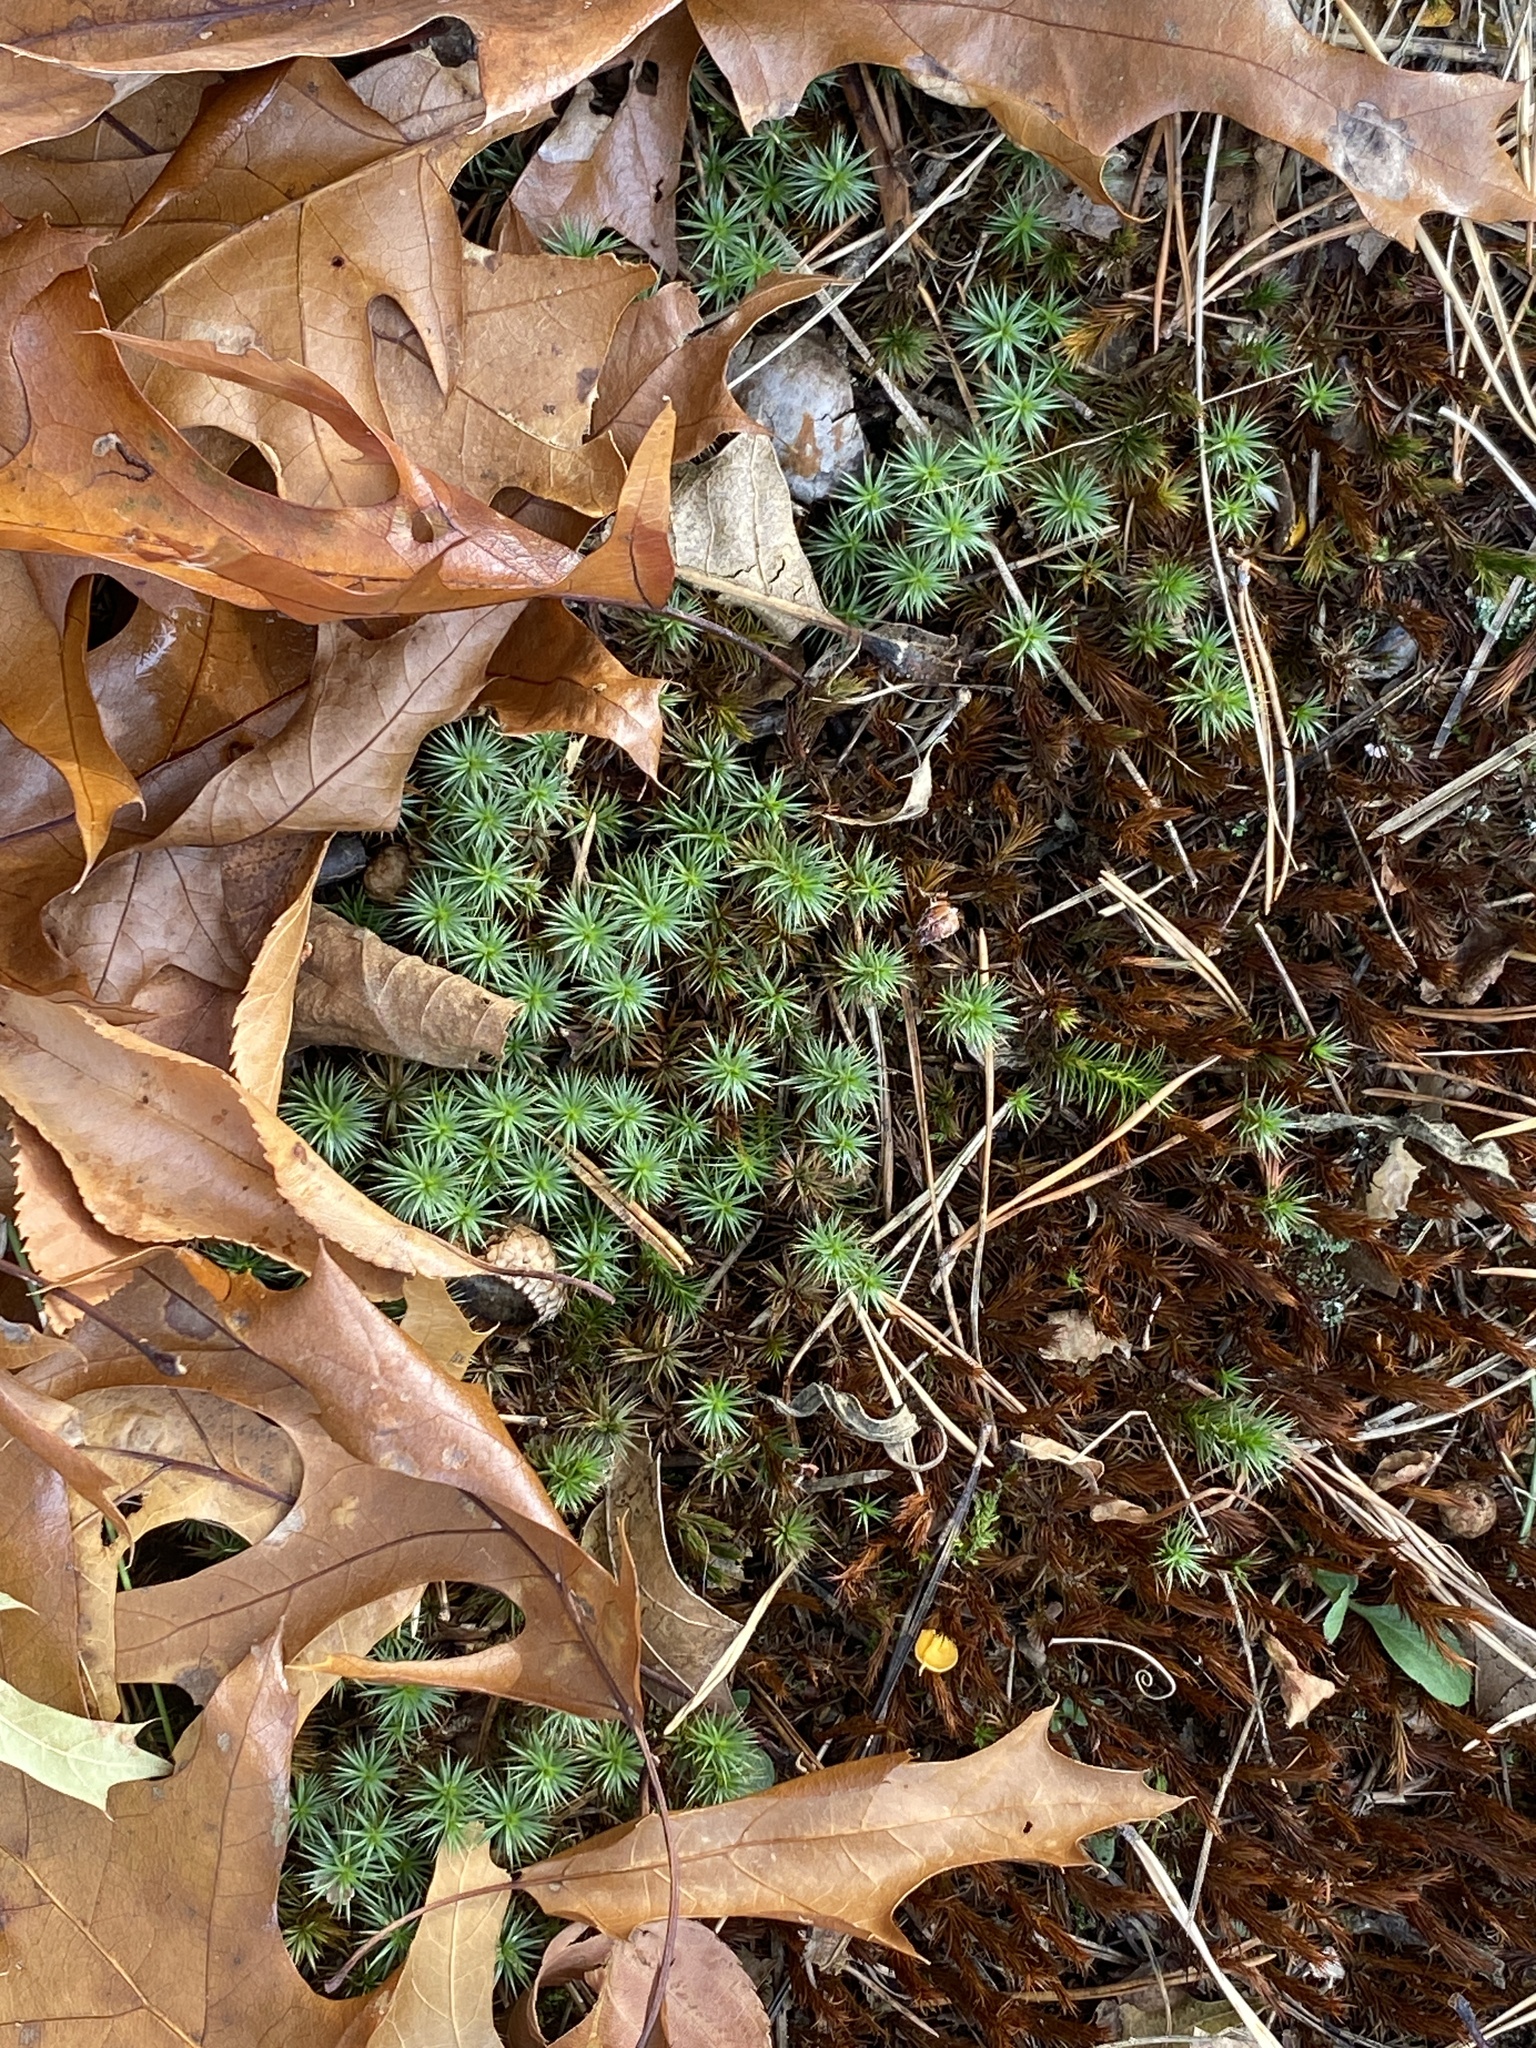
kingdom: Plantae
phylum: Bryophyta
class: Polytrichopsida
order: Polytrichales
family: Polytrichaceae
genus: Polytrichum
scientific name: Polytrichum juniperinum
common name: Juniper haircap moss
